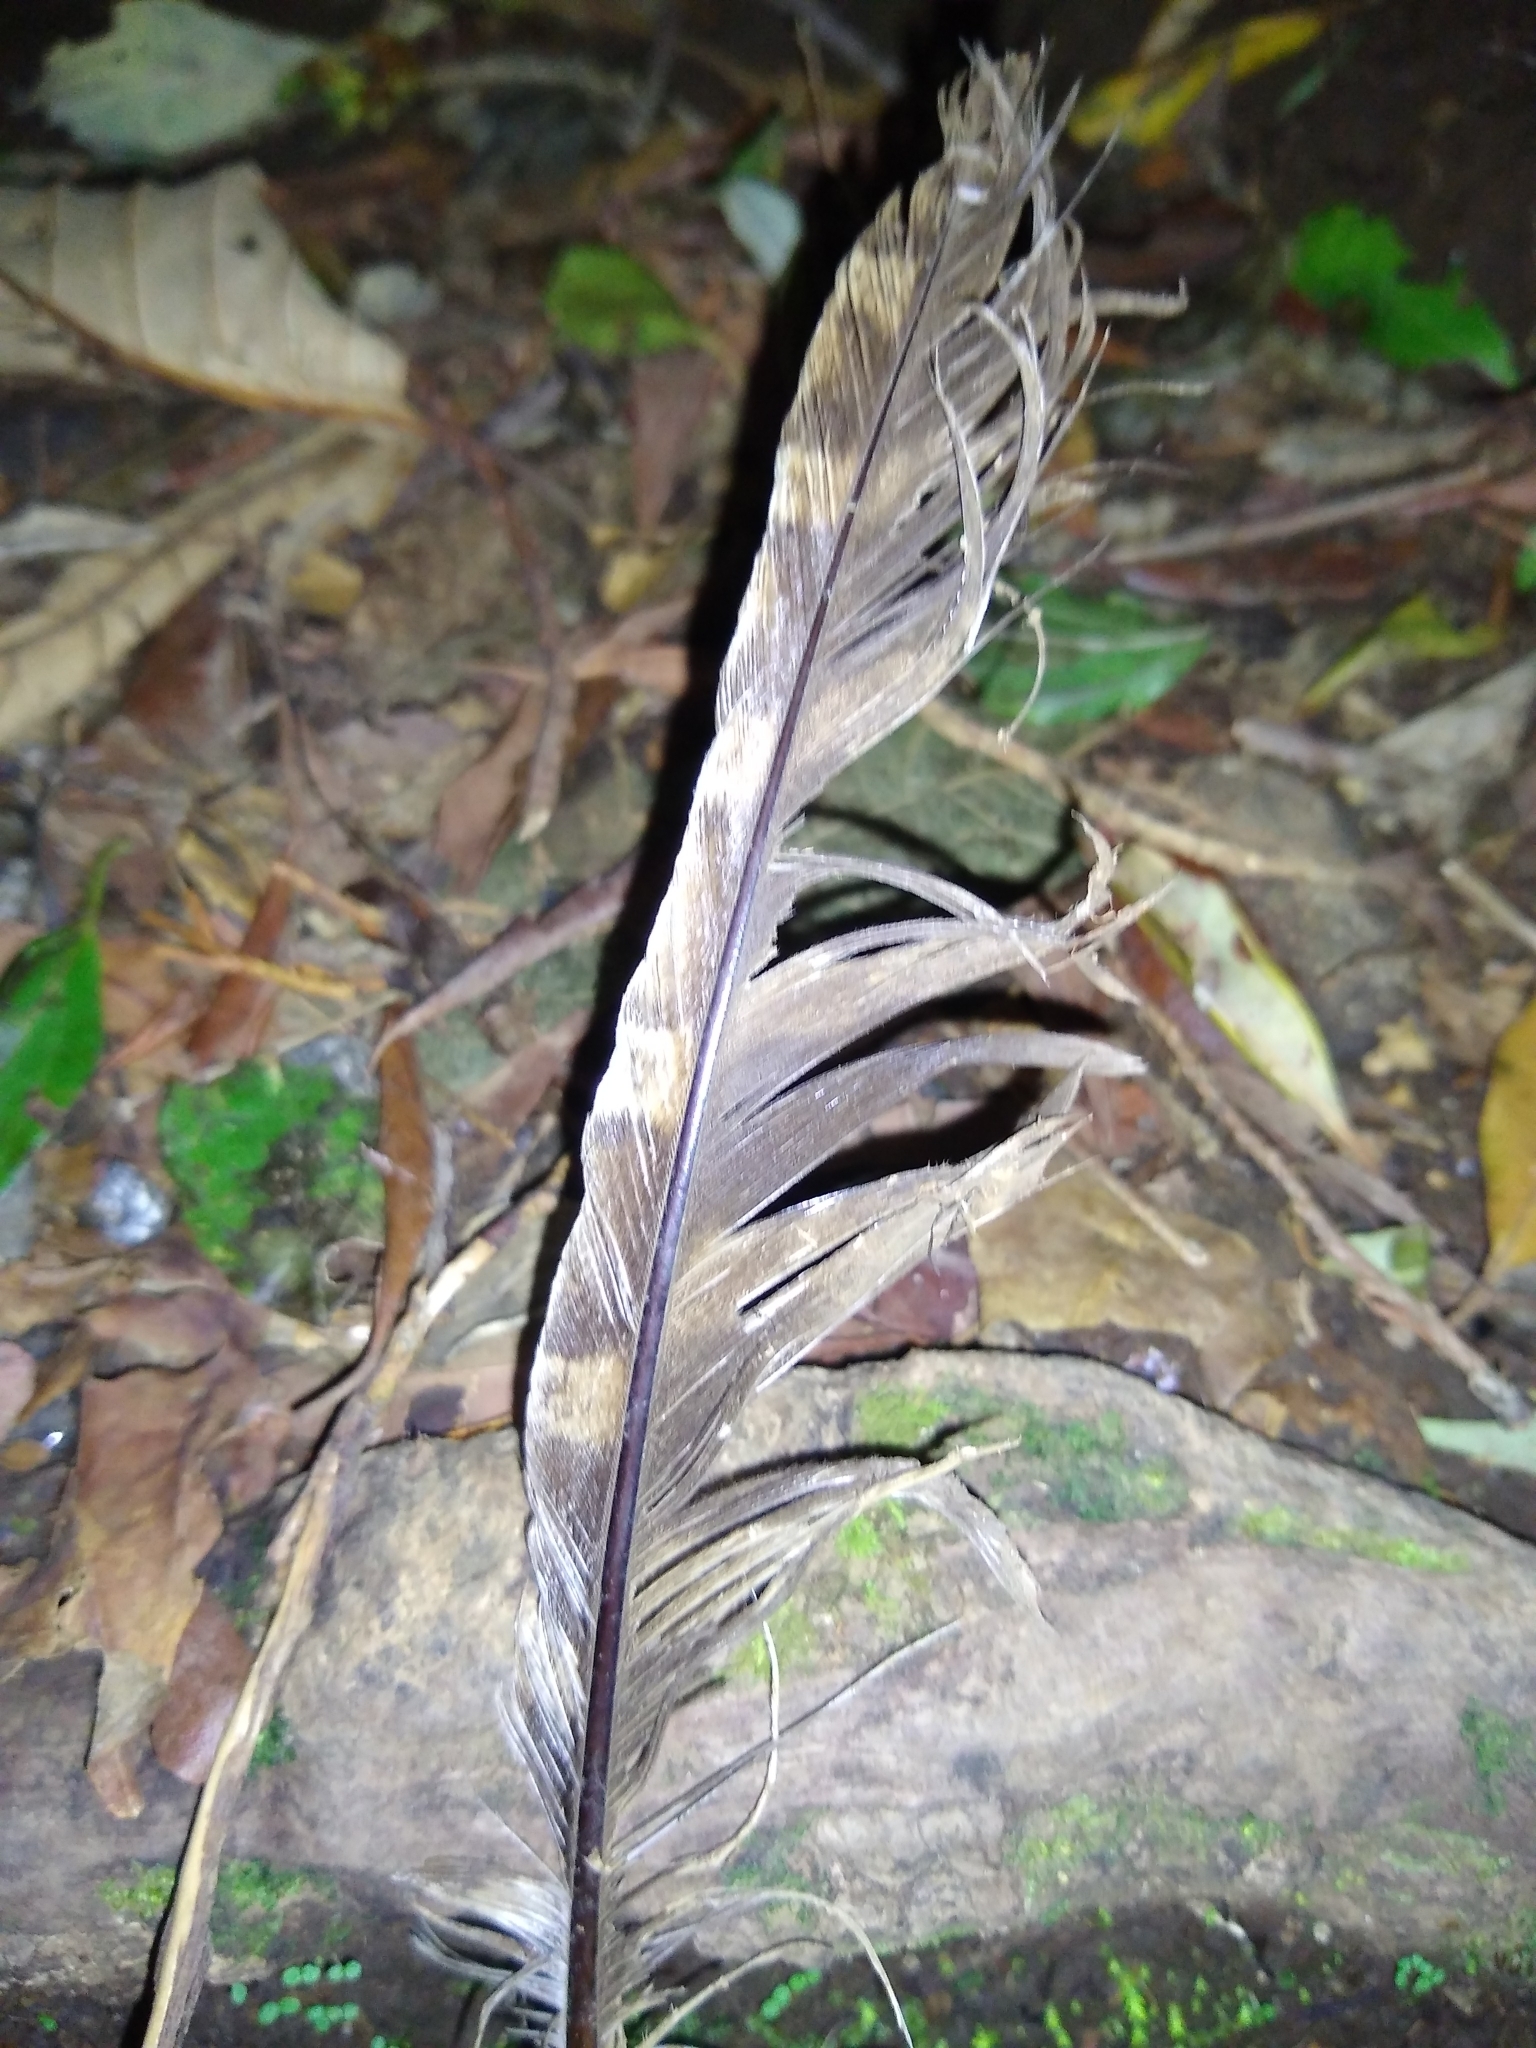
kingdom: Animalia
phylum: Chordata
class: Aves
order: Strigiformes
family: Strigidae
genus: Strix
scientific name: Strix virgata
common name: Mottled owl
